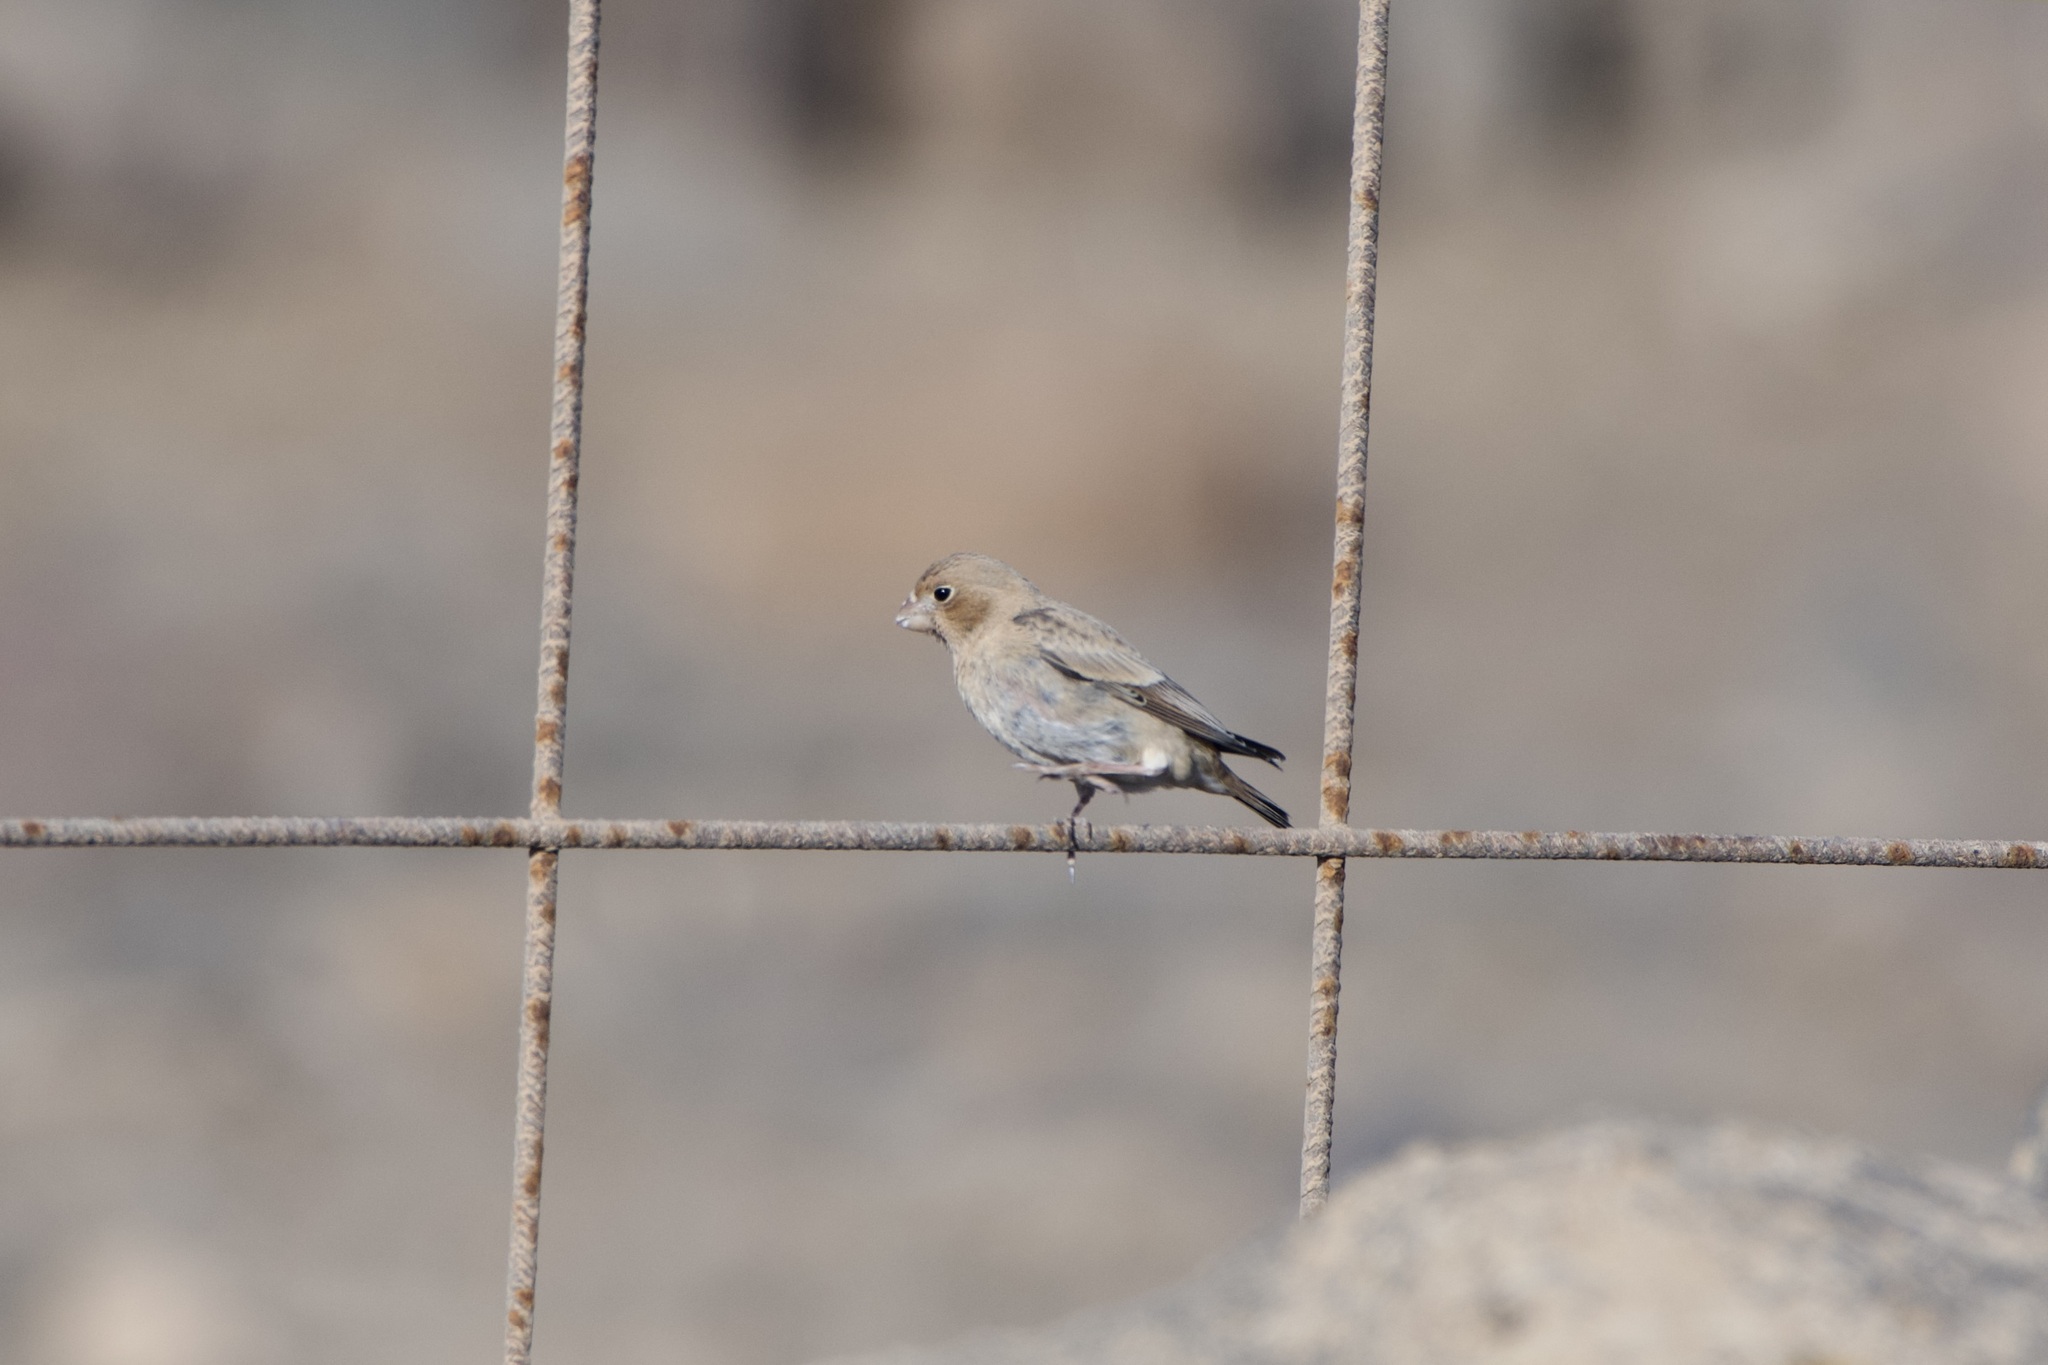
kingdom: Animalia
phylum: Chordata
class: Aves
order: Passeriformes
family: Fringillidae
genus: Bucanetes
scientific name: Bucanetes githagineus
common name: Trumpeter finch
